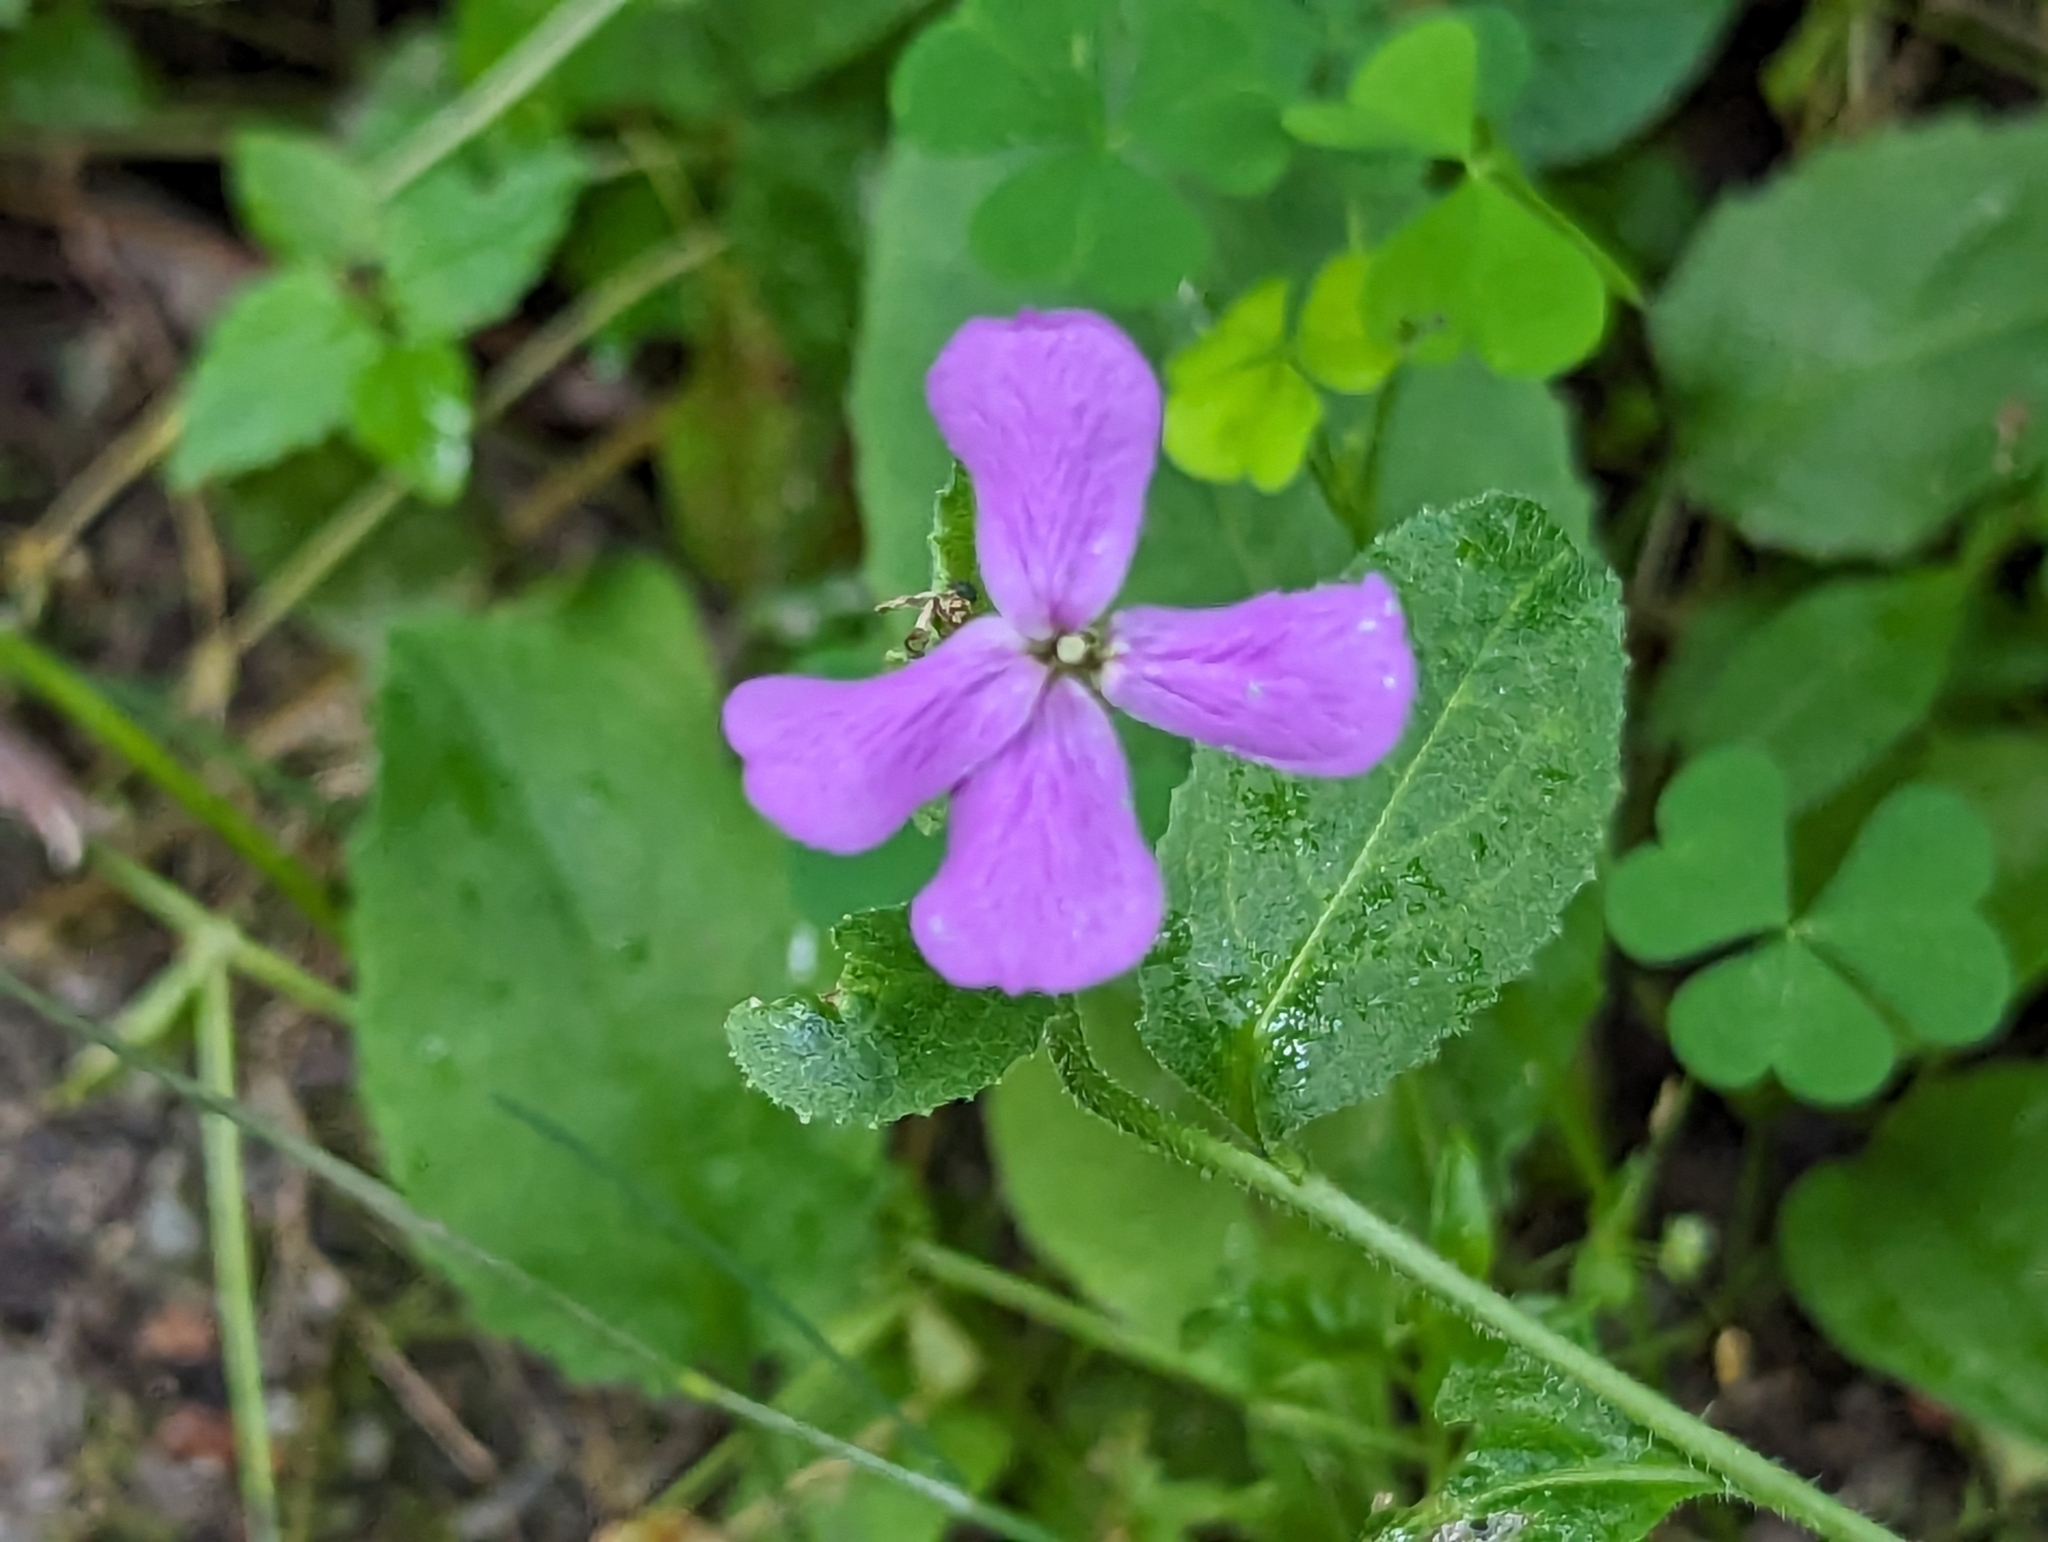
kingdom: Plantae
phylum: Tracheophyta
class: Magnoliopsida
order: Brassicales
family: Brassicaceae
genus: Hesperis
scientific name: Hesperis matronalis
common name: Dame's-violet
